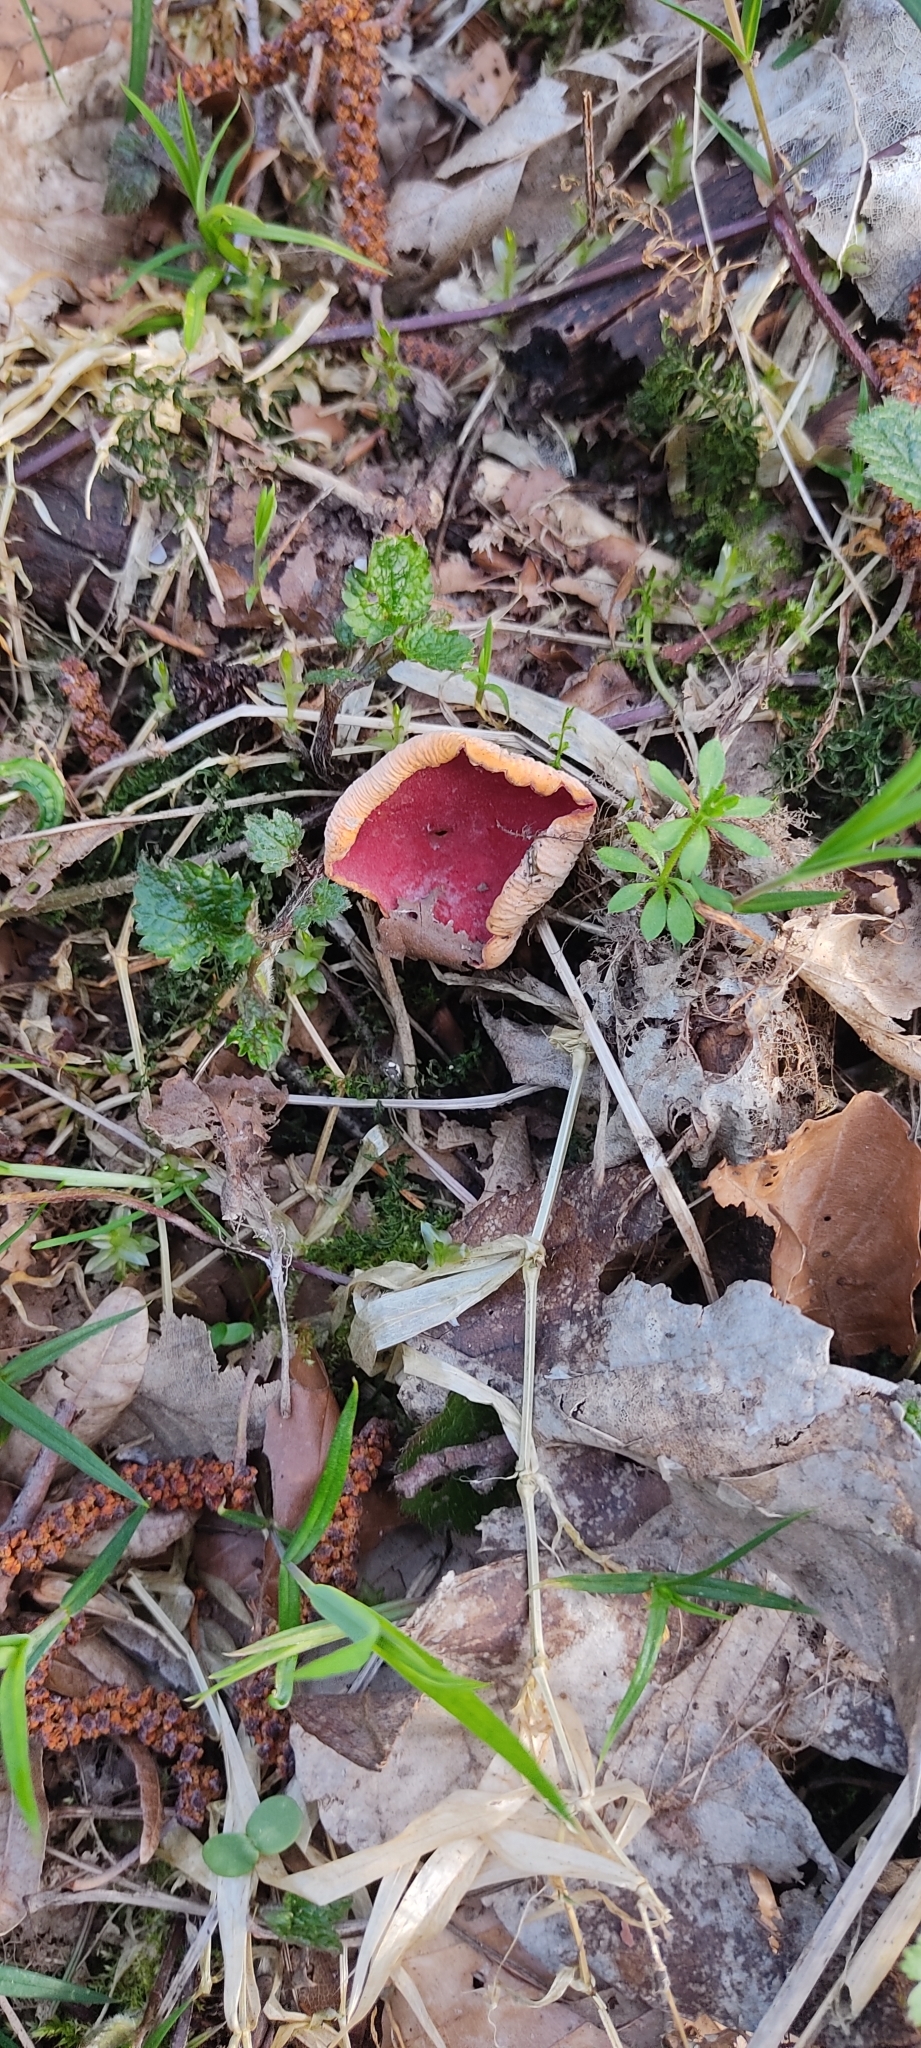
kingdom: Fungi
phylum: Ascomycota
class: Pezizomycetes
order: Pezizales
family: Sarcoscyphaceae
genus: Sarcoscypha
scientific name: Sarcoscypha
